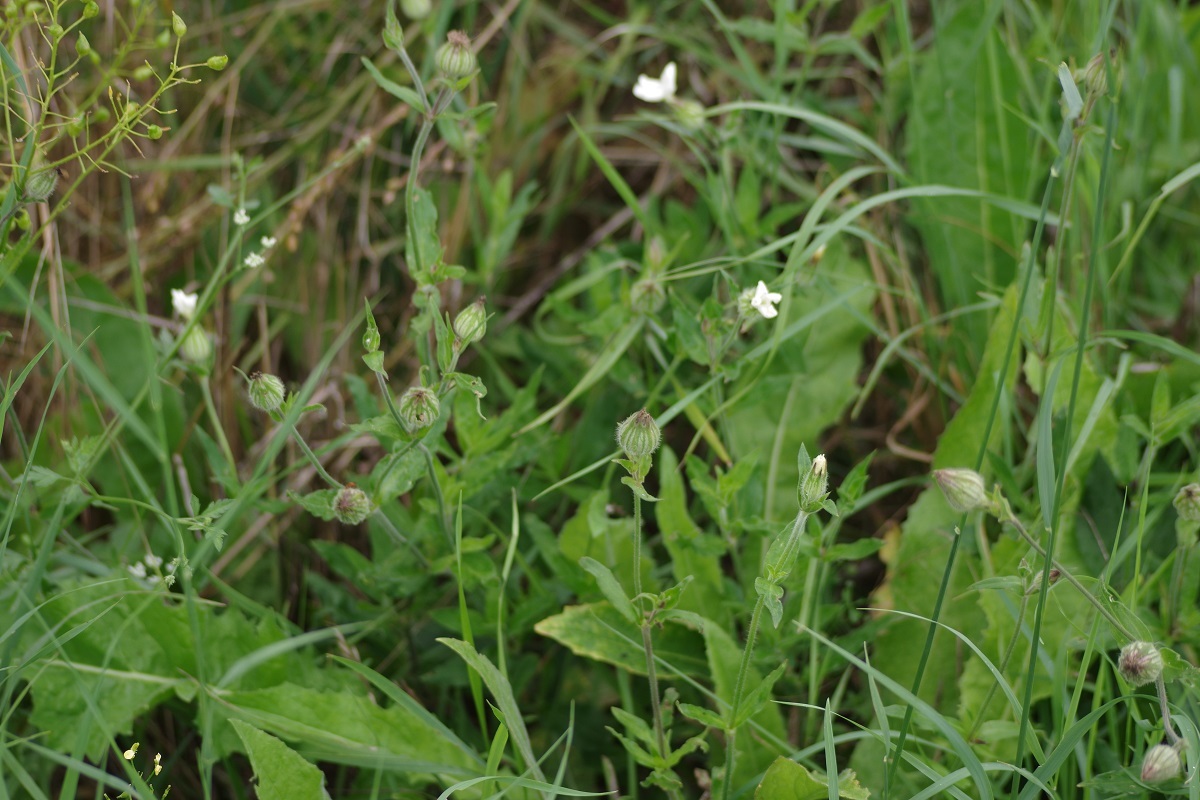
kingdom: Plantae
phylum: Tracheophyta
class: Magnoliopsida
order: Caryophyllales
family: Caryophyllaceae
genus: Silene
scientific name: Silene latifolia
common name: White campion
